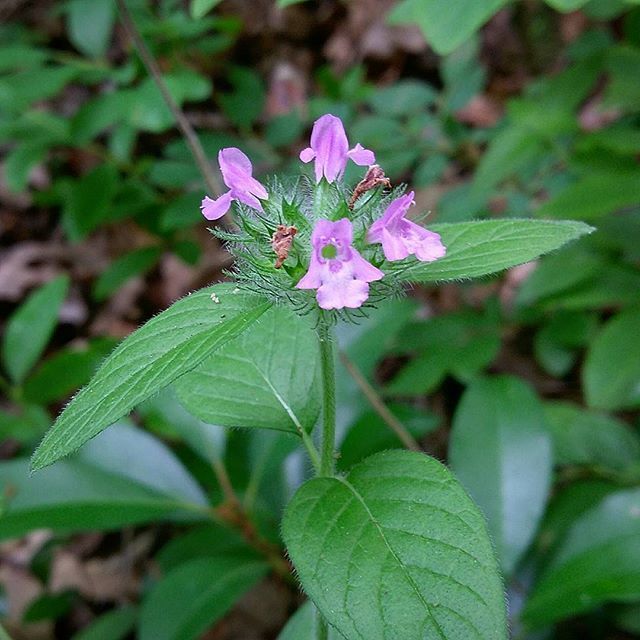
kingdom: Plantae
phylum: Tracheophyta
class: Magnoliopsida
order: Lamiales
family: Lamiaceae
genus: Clinopodium
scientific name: Clinopodium vulgare
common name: Wild basil
